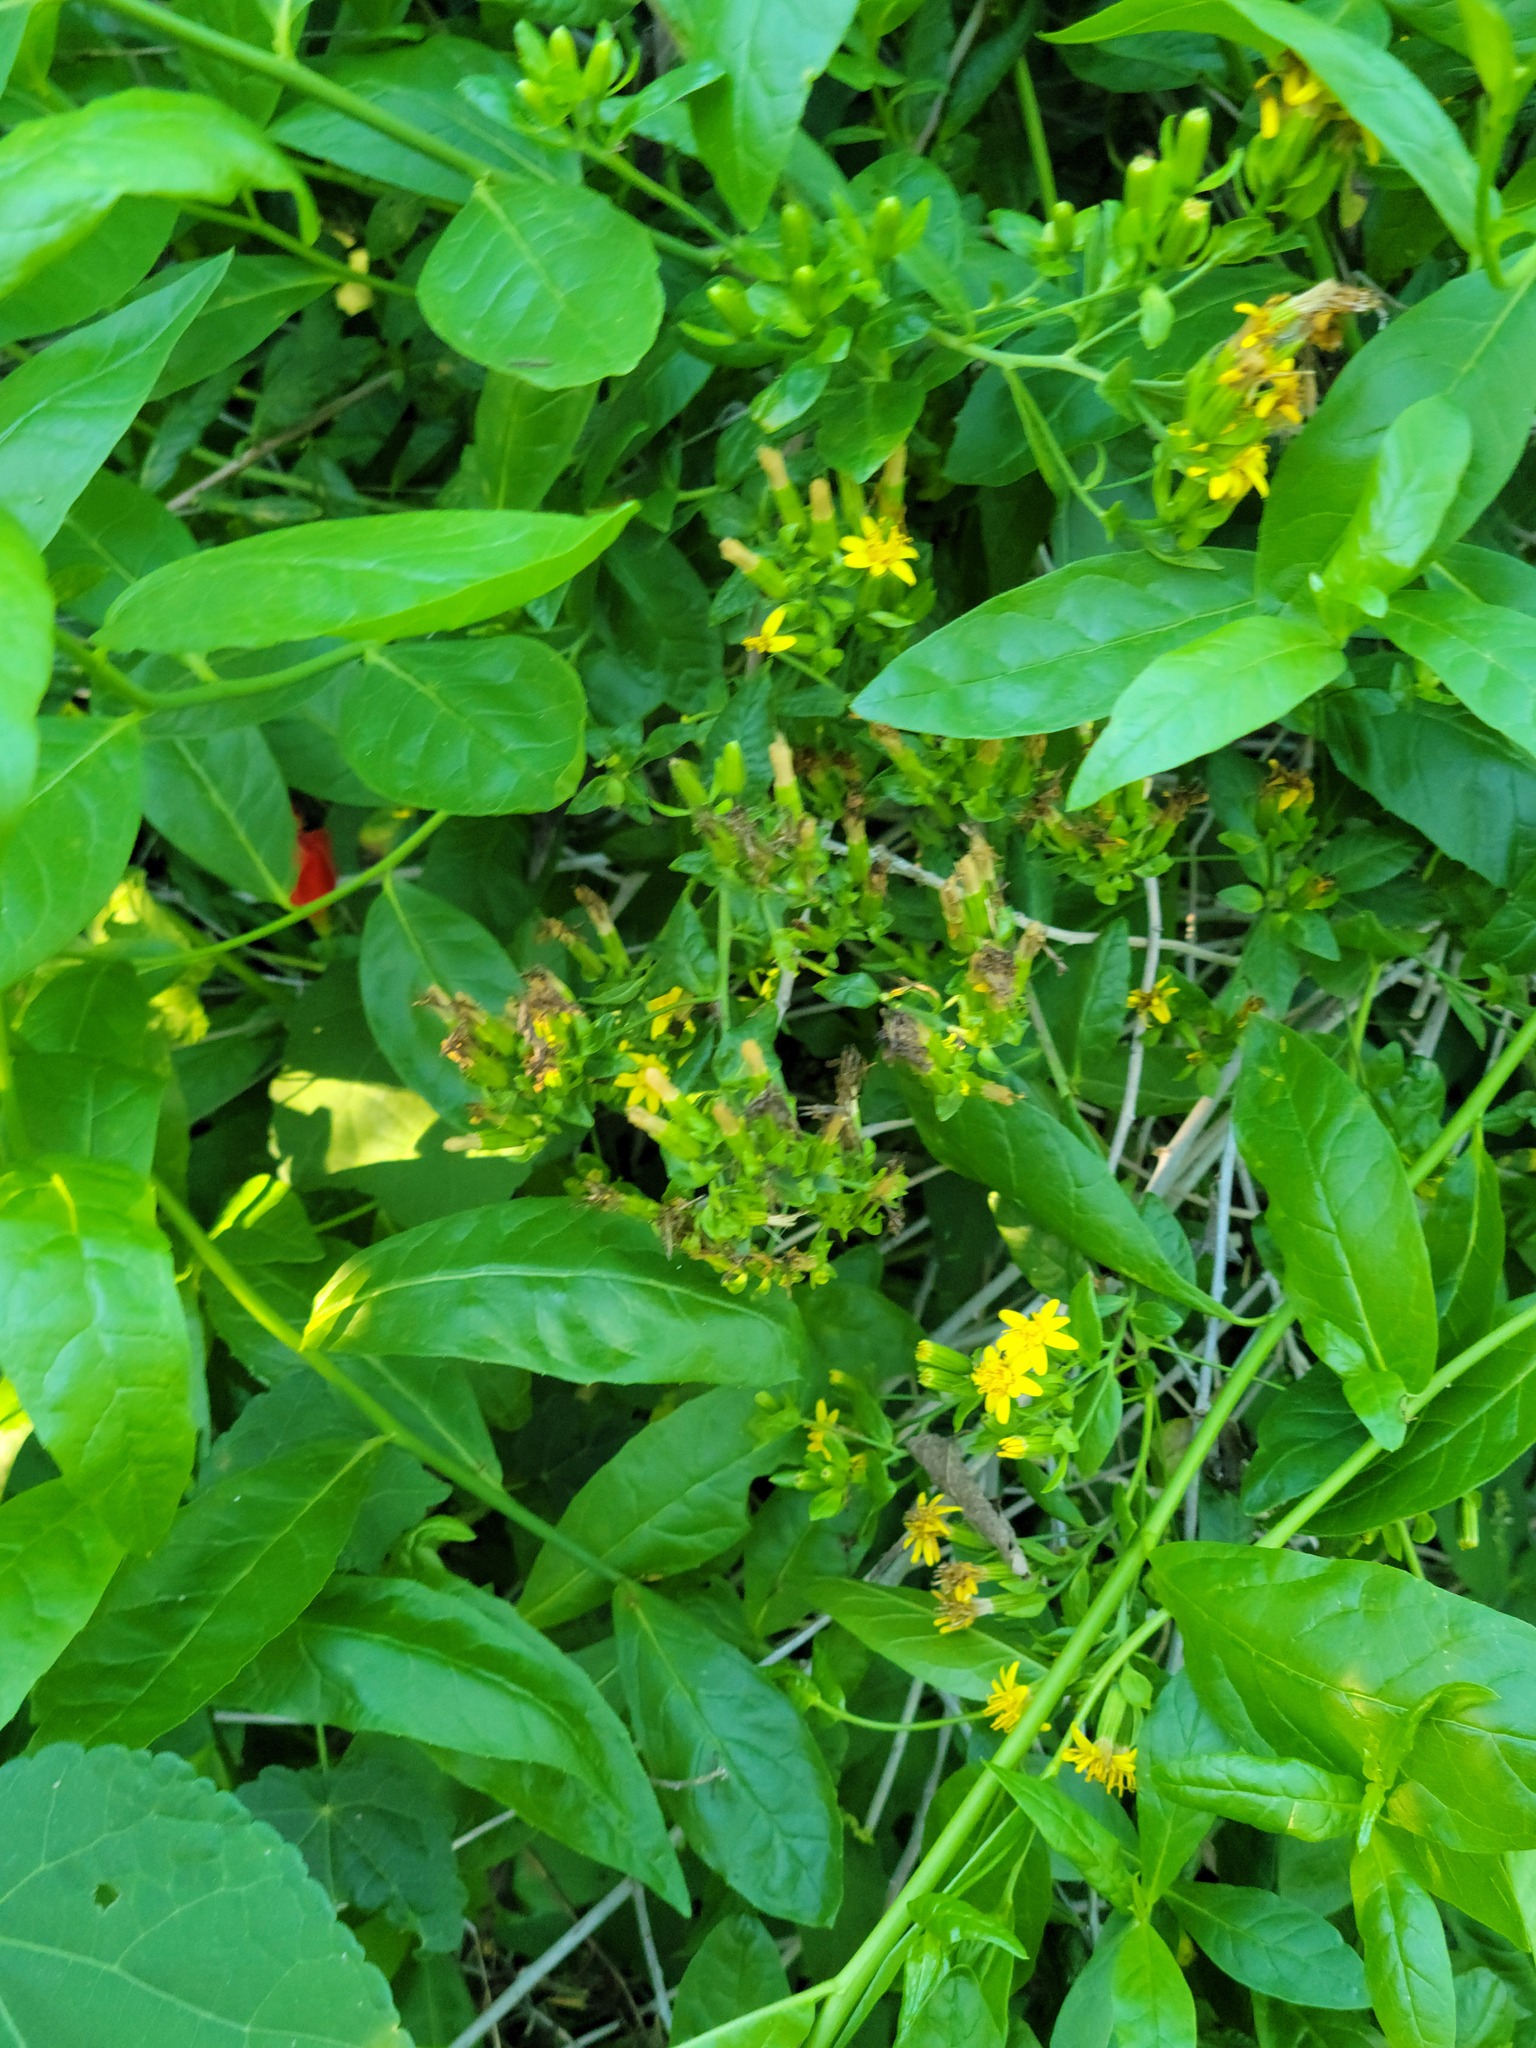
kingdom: Plantae
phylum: Tracheophyta
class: Magnoliopsida
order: Asterales
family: Asteraceae
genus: Trixis
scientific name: Trixis inula
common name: Tropical threefold
